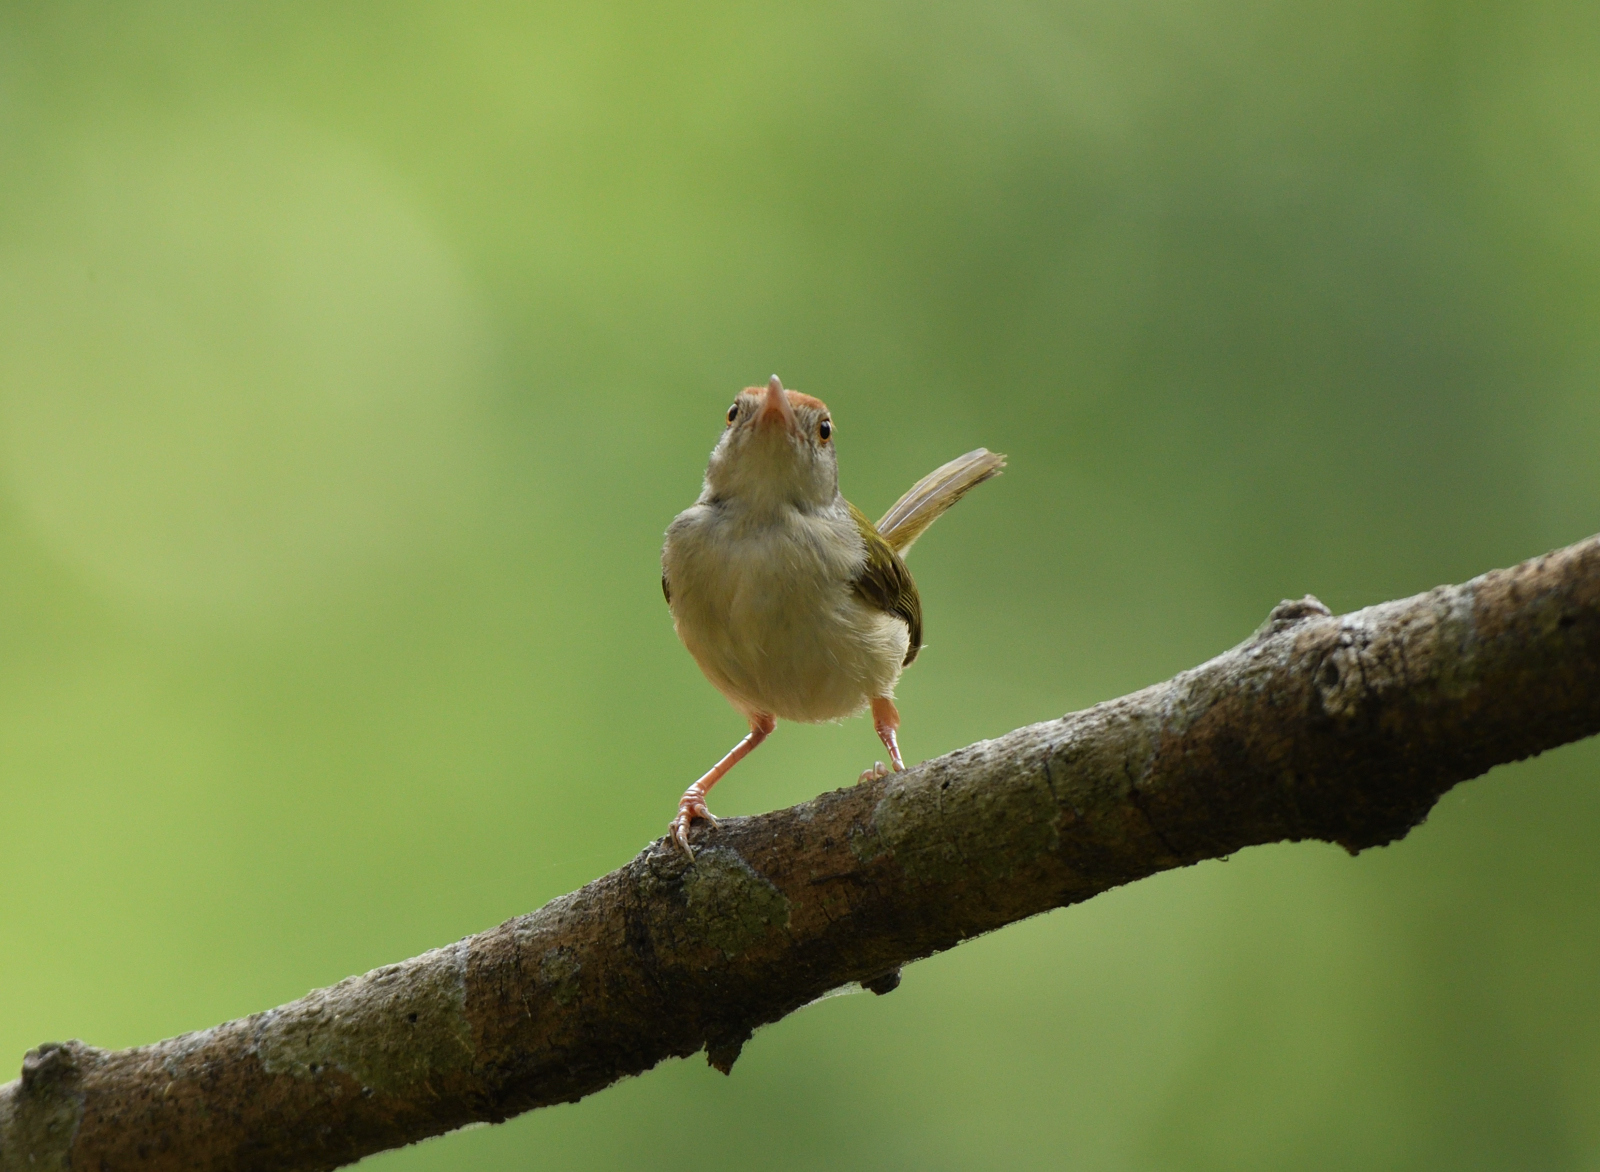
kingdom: Animalia
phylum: Chordata
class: Aves
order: Passeriformes
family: Cisticolidae
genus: Orthotomus
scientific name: Orthotomus sutorius
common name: Common tailorbird
